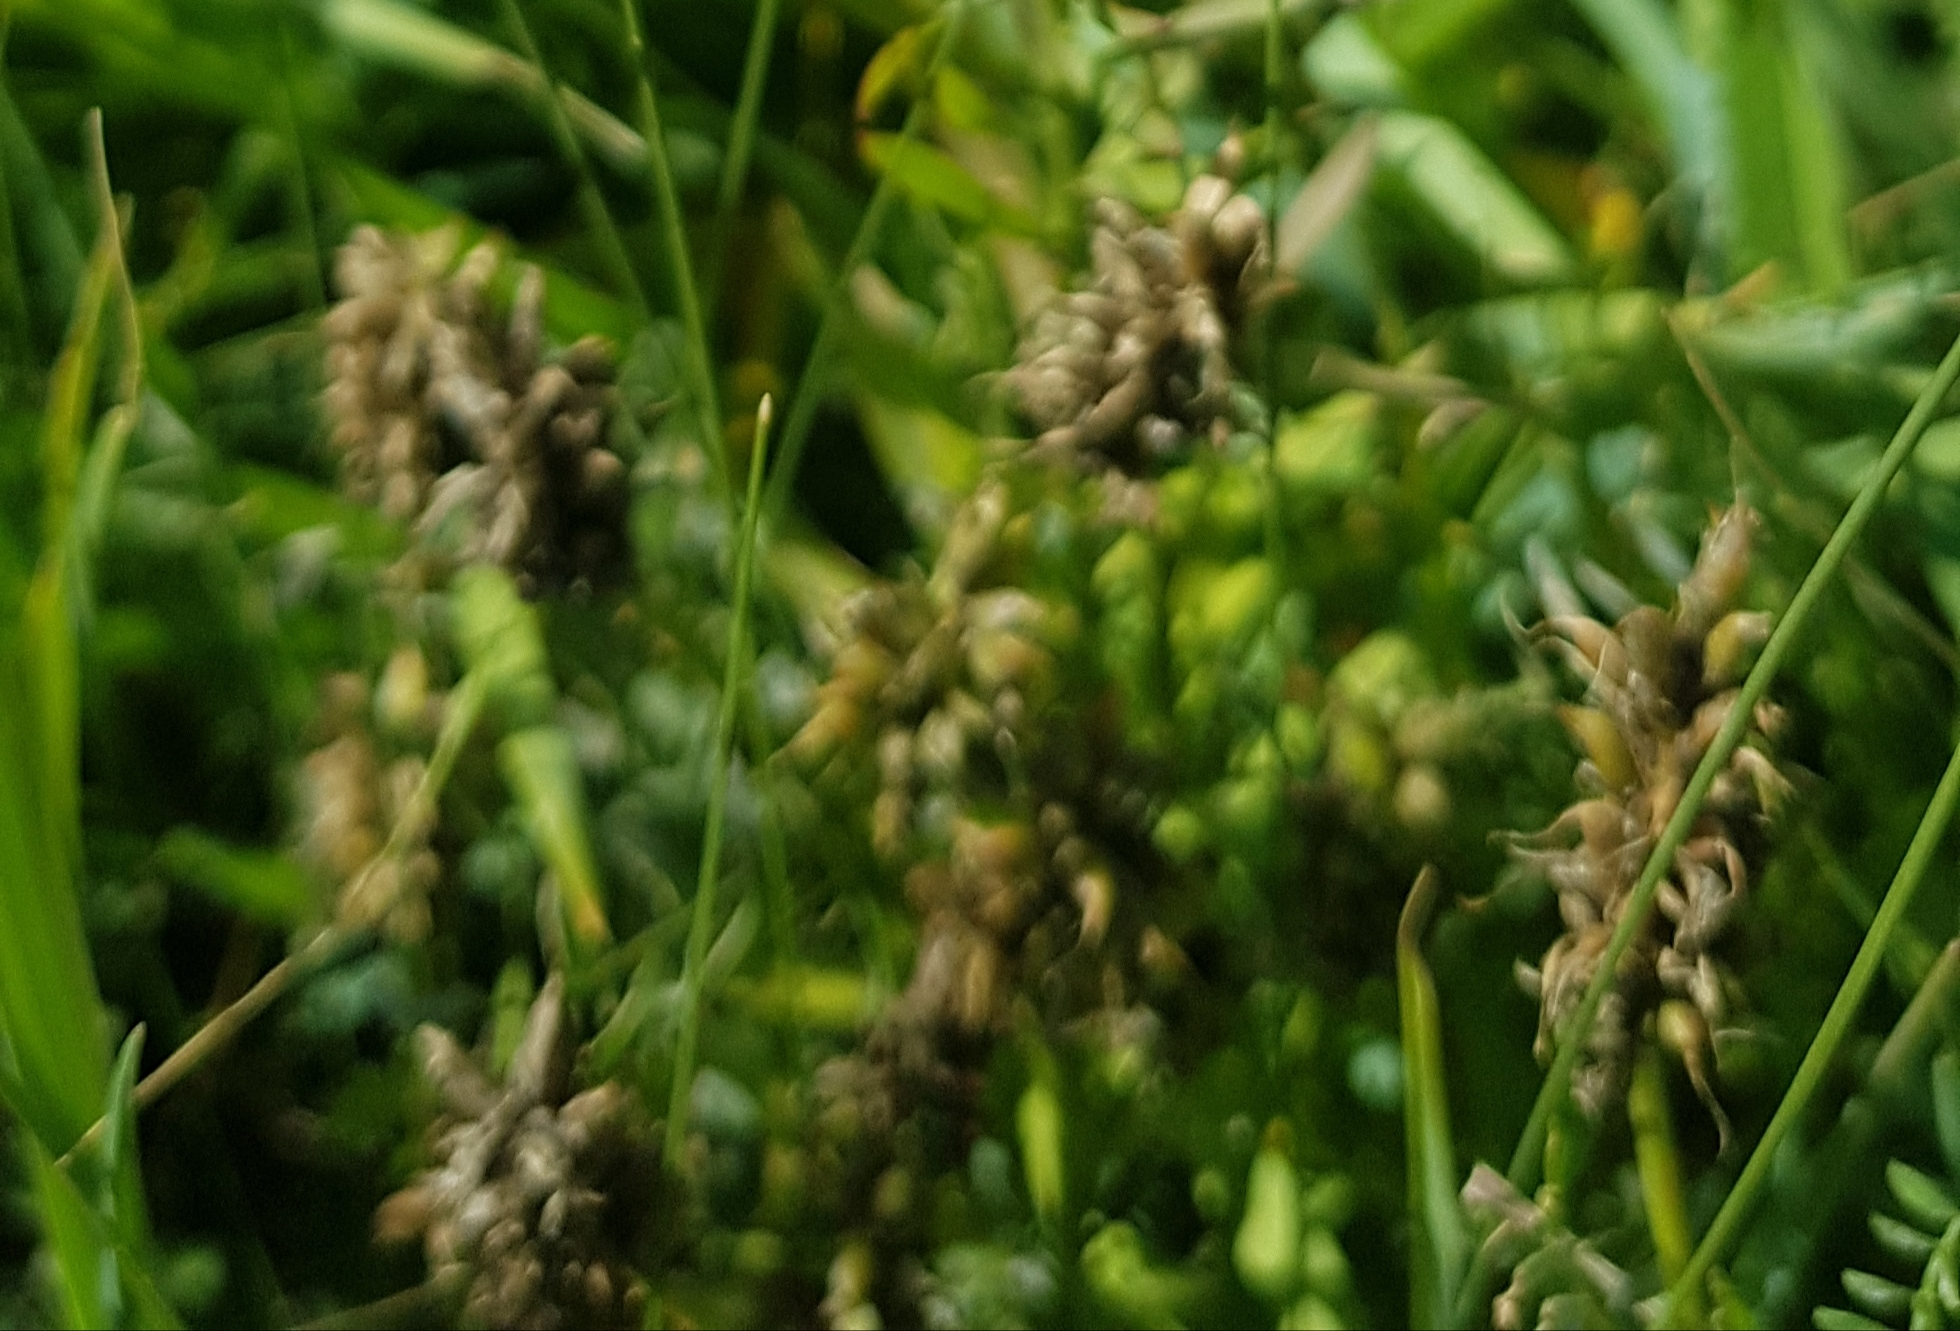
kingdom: Plantae
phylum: Tracheophyta
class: Liliopsida
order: Poales
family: Cyperaceae
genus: Carex
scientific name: Carex duriuscula
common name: Involute-leaved sedge
